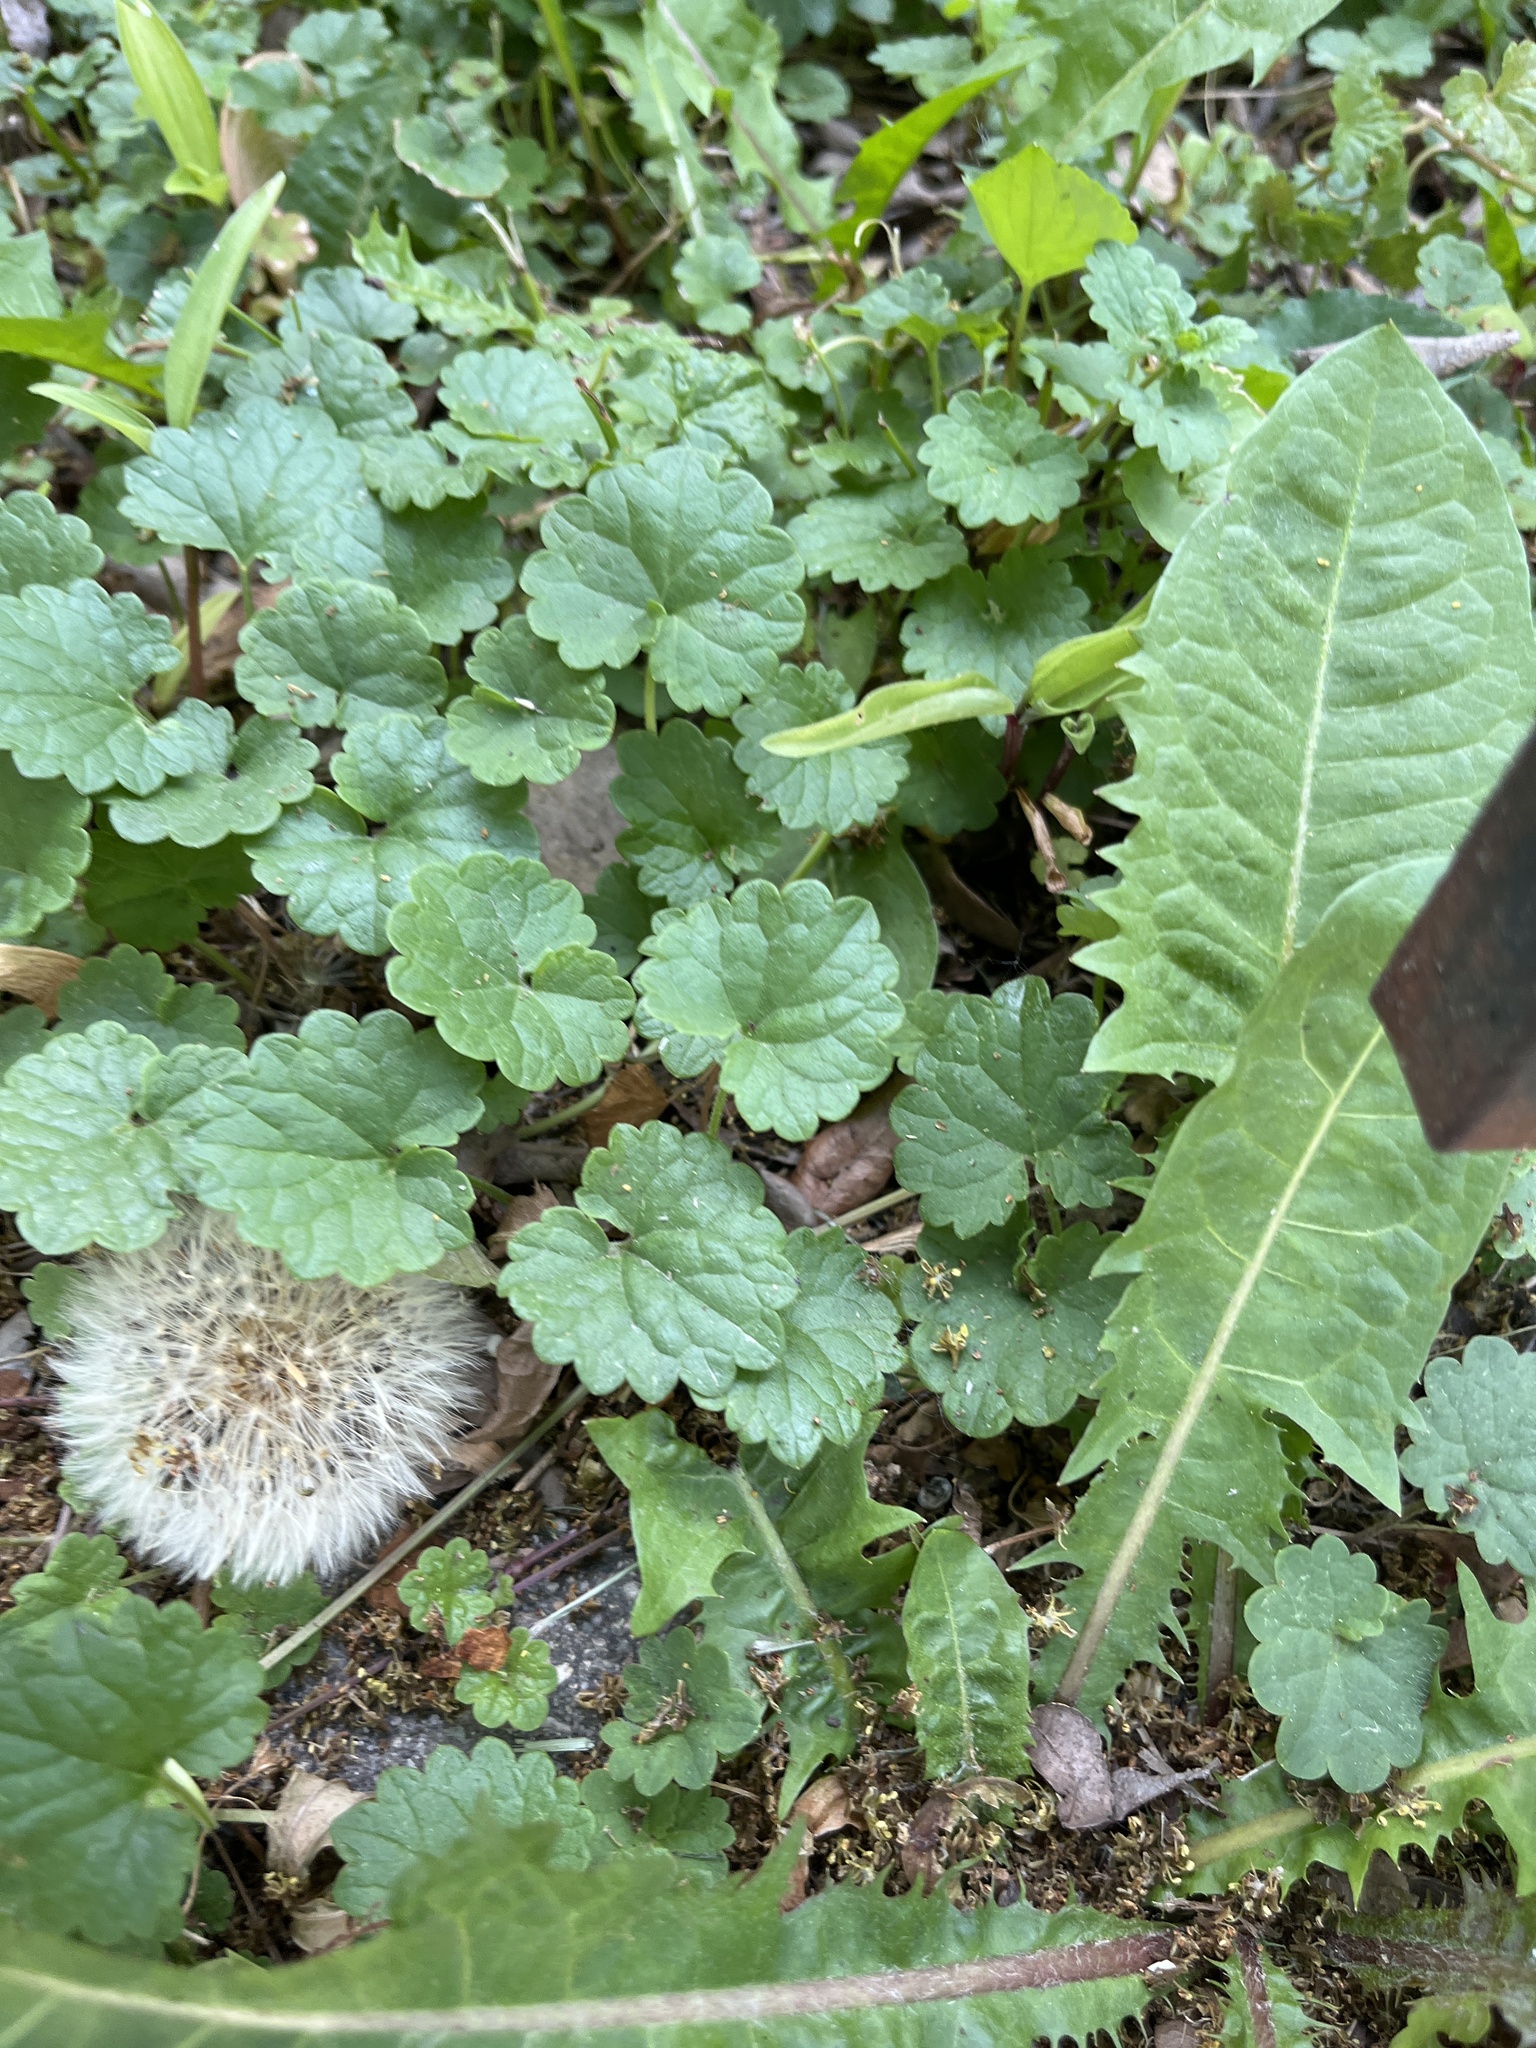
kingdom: Plantae
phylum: Tracheophyta
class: Magnoliopsida
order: Lamiales
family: Lamiaceae
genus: Glechoma
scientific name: Glechoma hederacea
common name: Ground ivy
